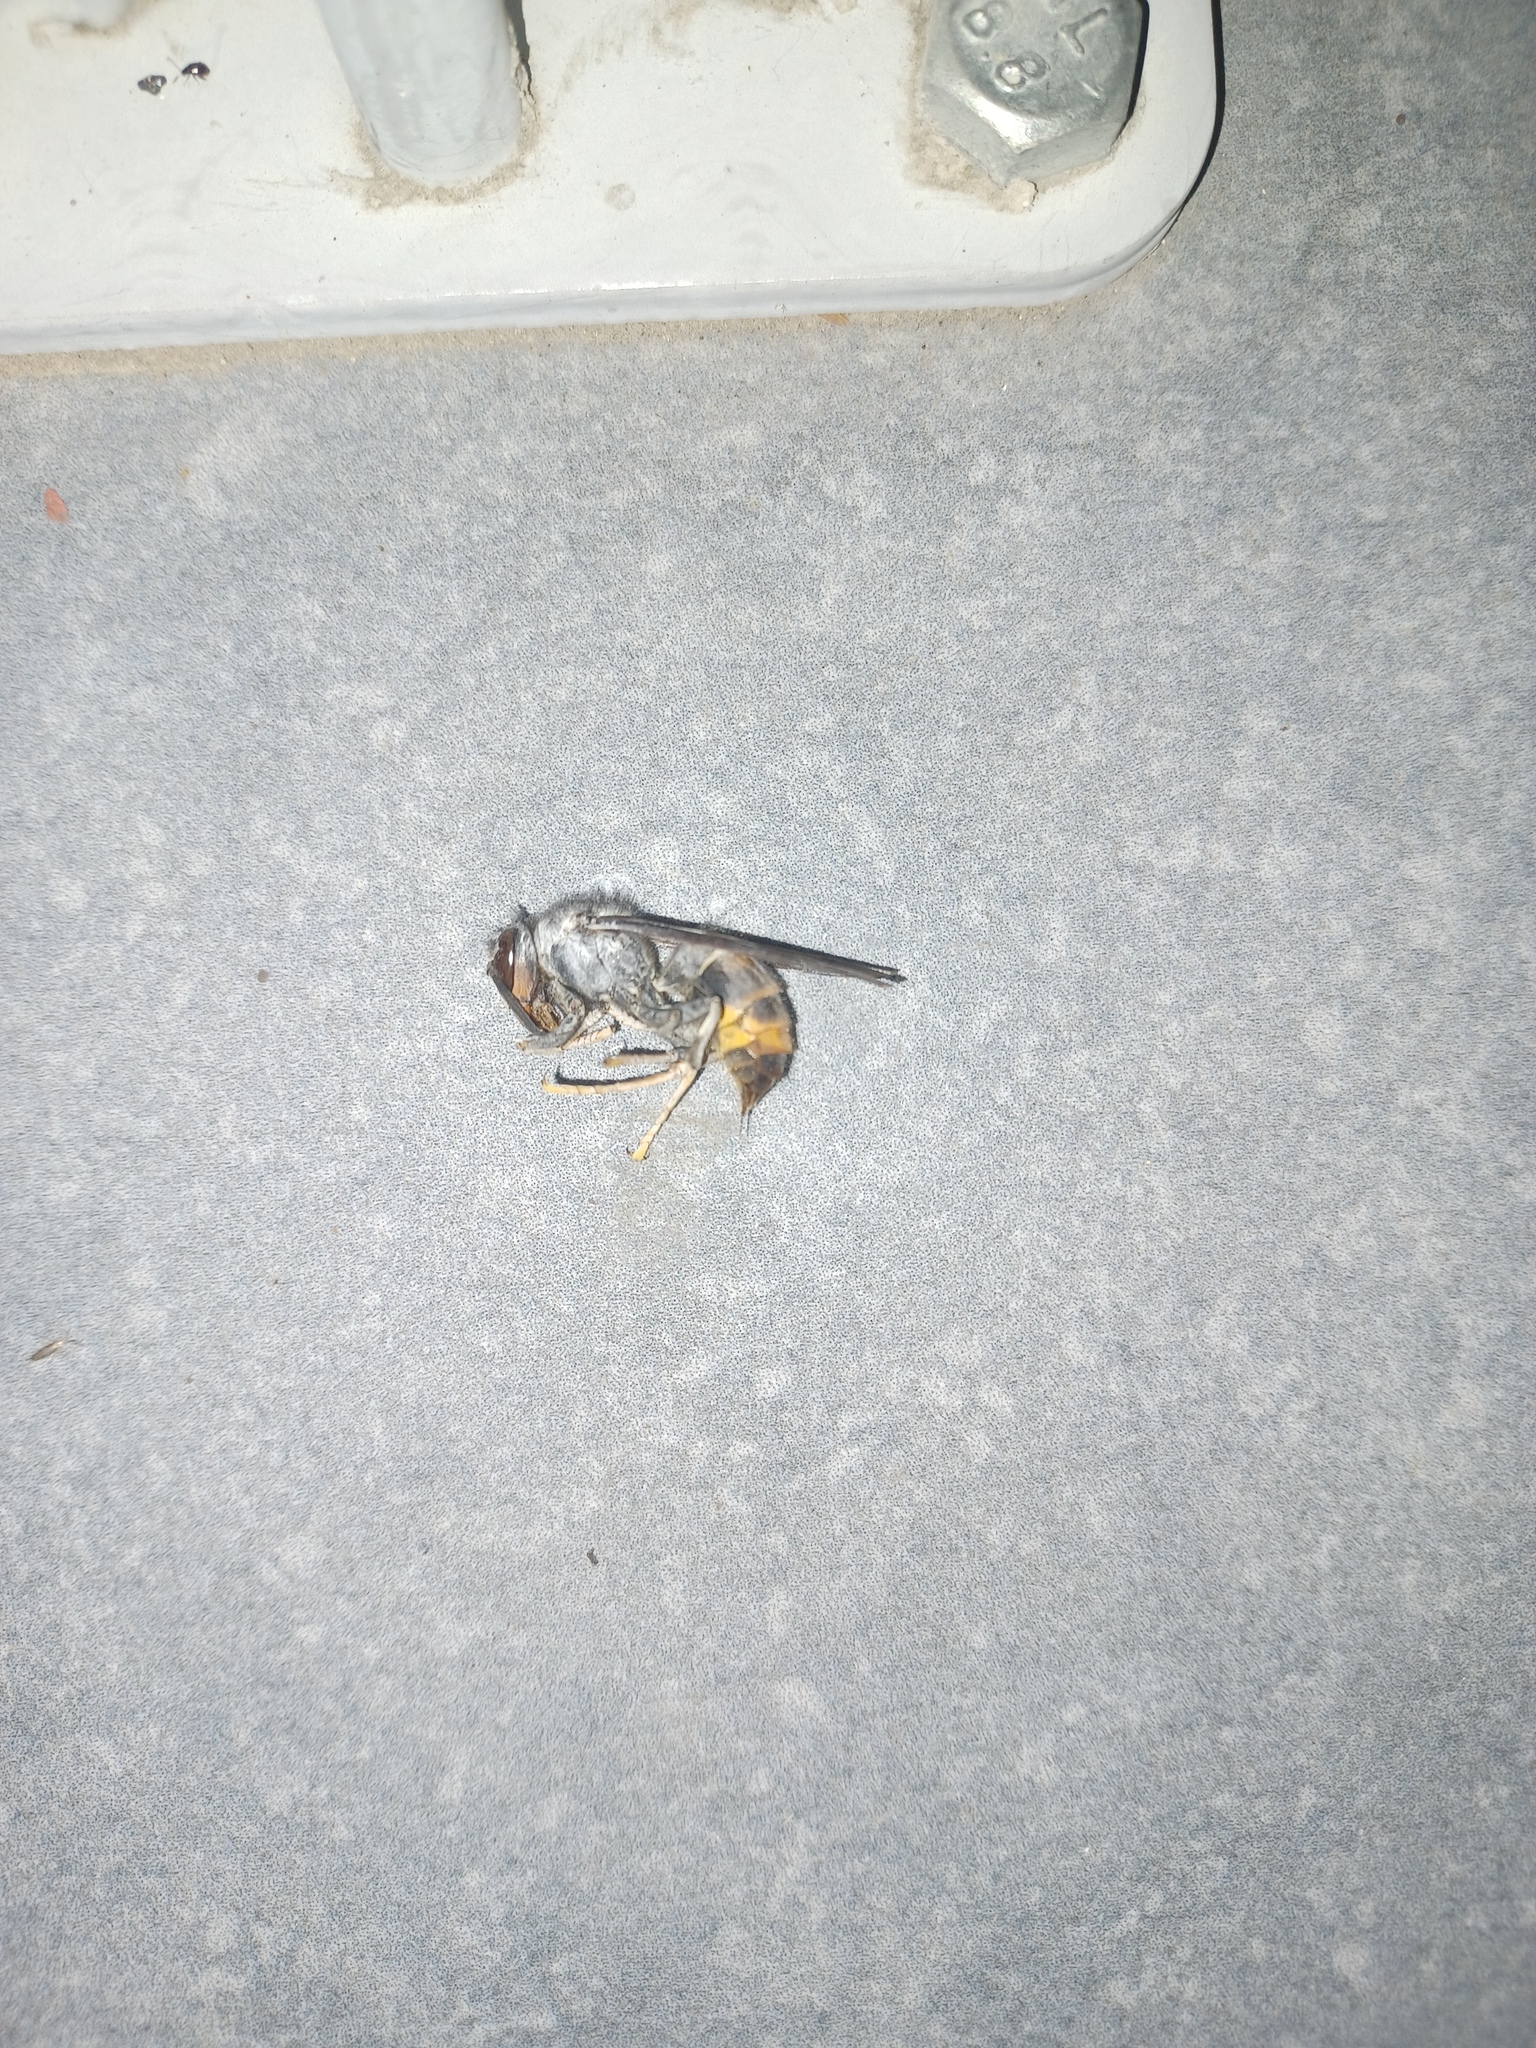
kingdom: Animalia
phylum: Arthropoda
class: Insecta
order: Hymenoptera
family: Vespidae
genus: Vespa
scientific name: Vespa velutina
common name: Asian hornet
